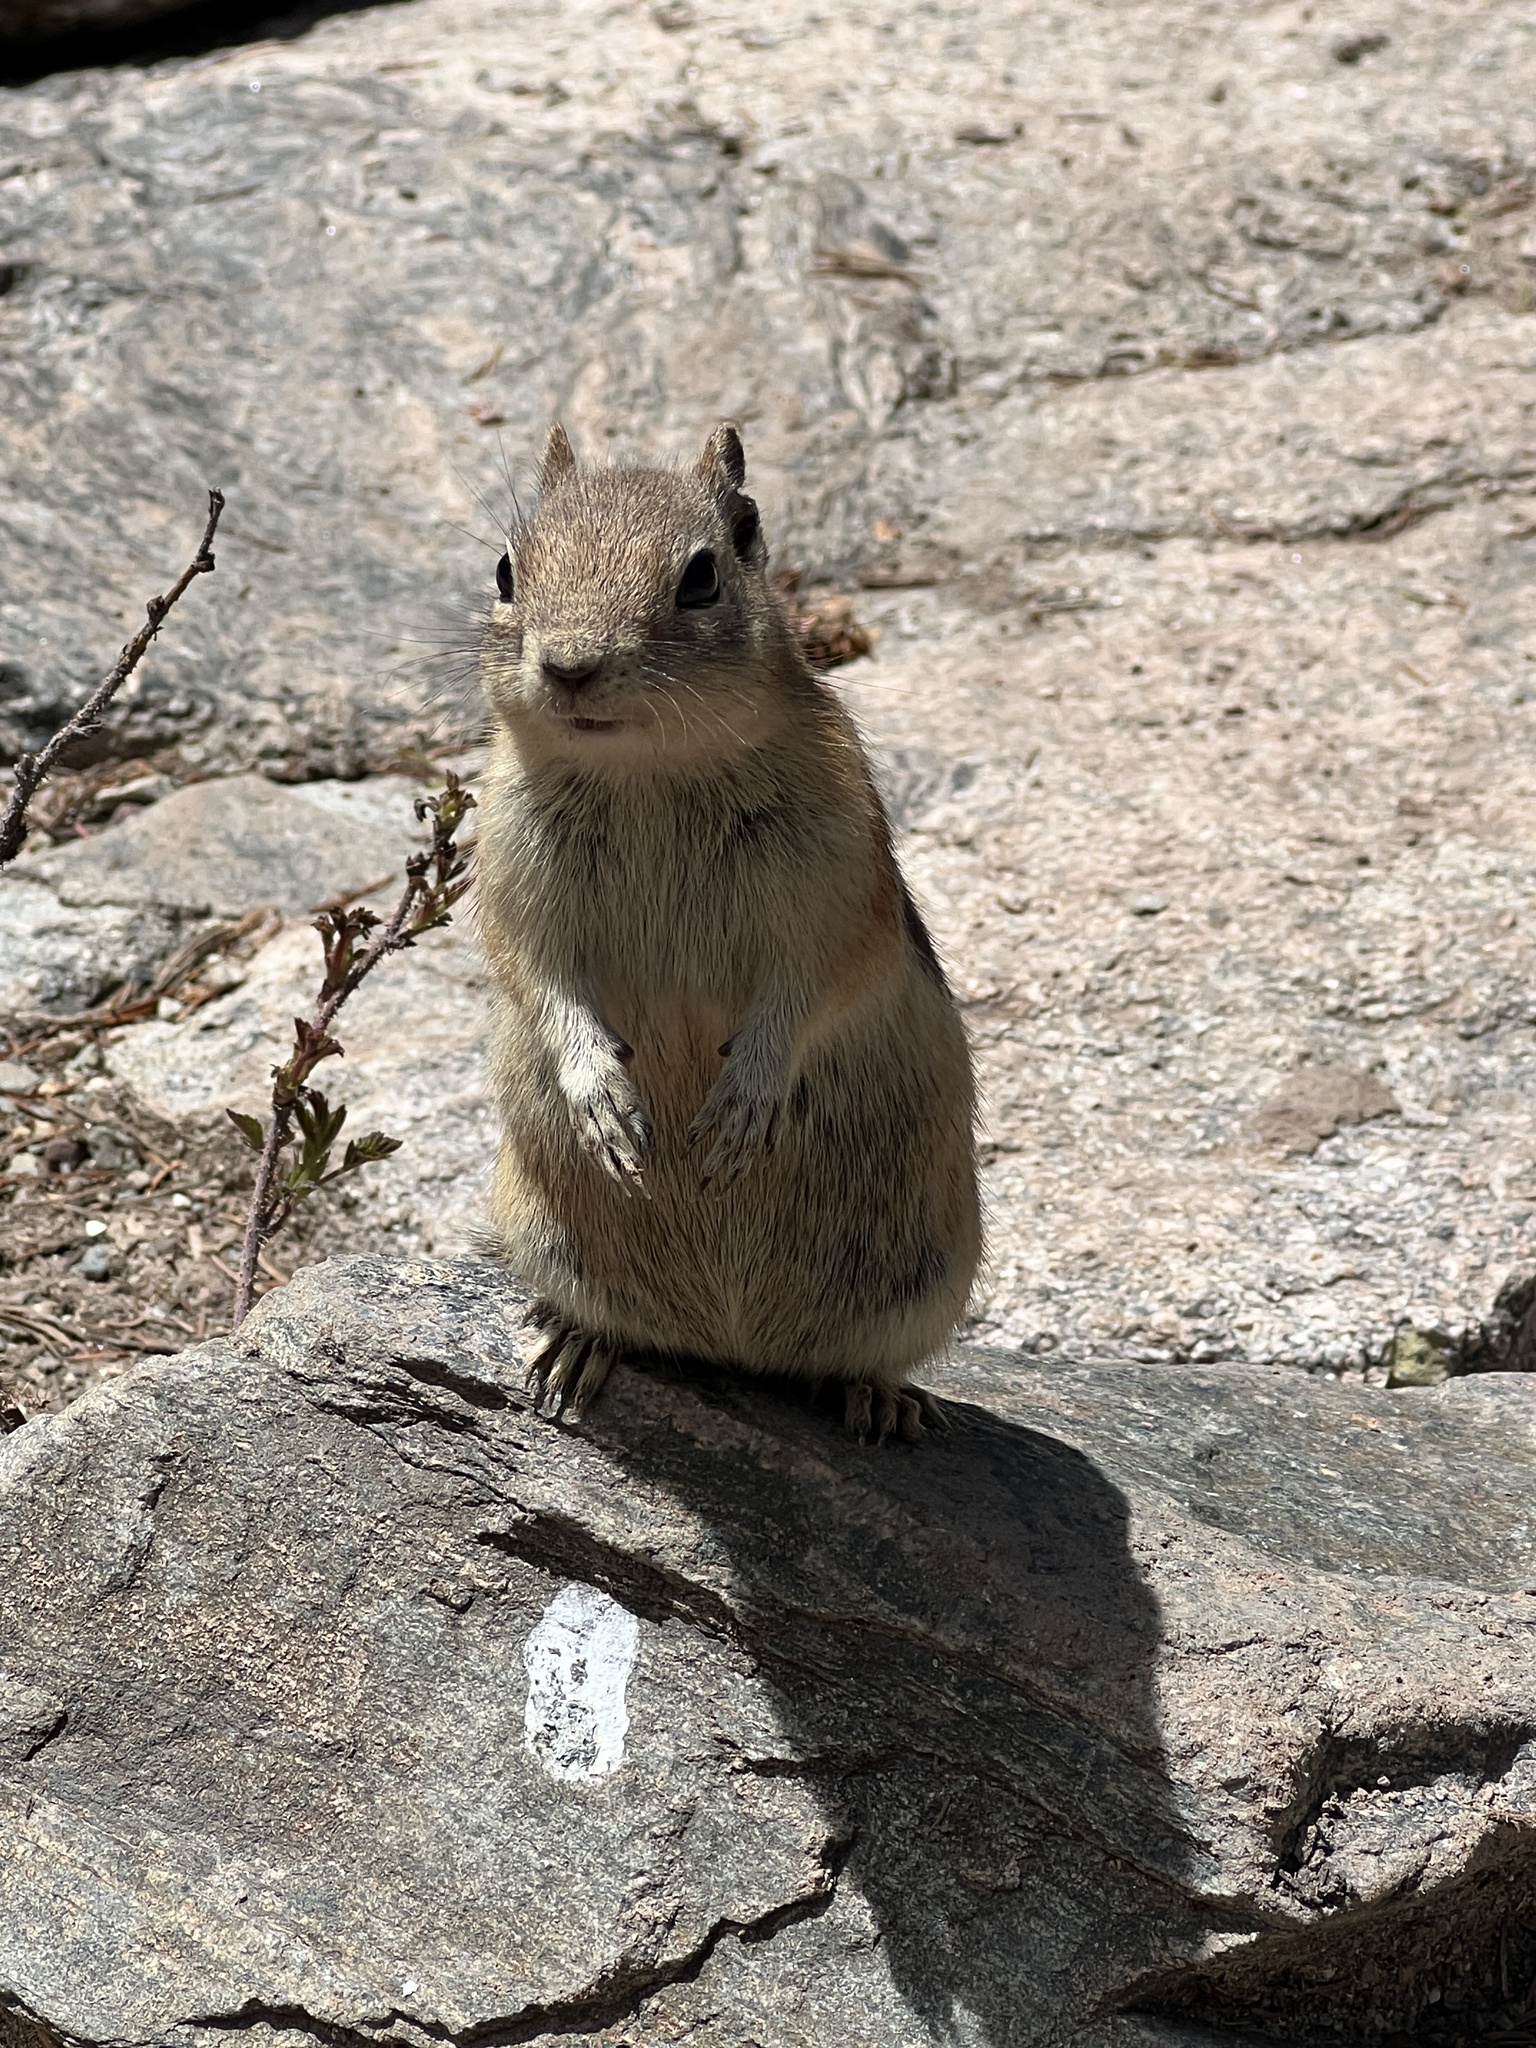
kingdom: Animalia
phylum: Chordata
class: Mammalia
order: Rodentia
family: Sciuridae
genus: Callospermophilus
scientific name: Callospermophilus lateralis
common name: Golden-mantled ground squirrel
